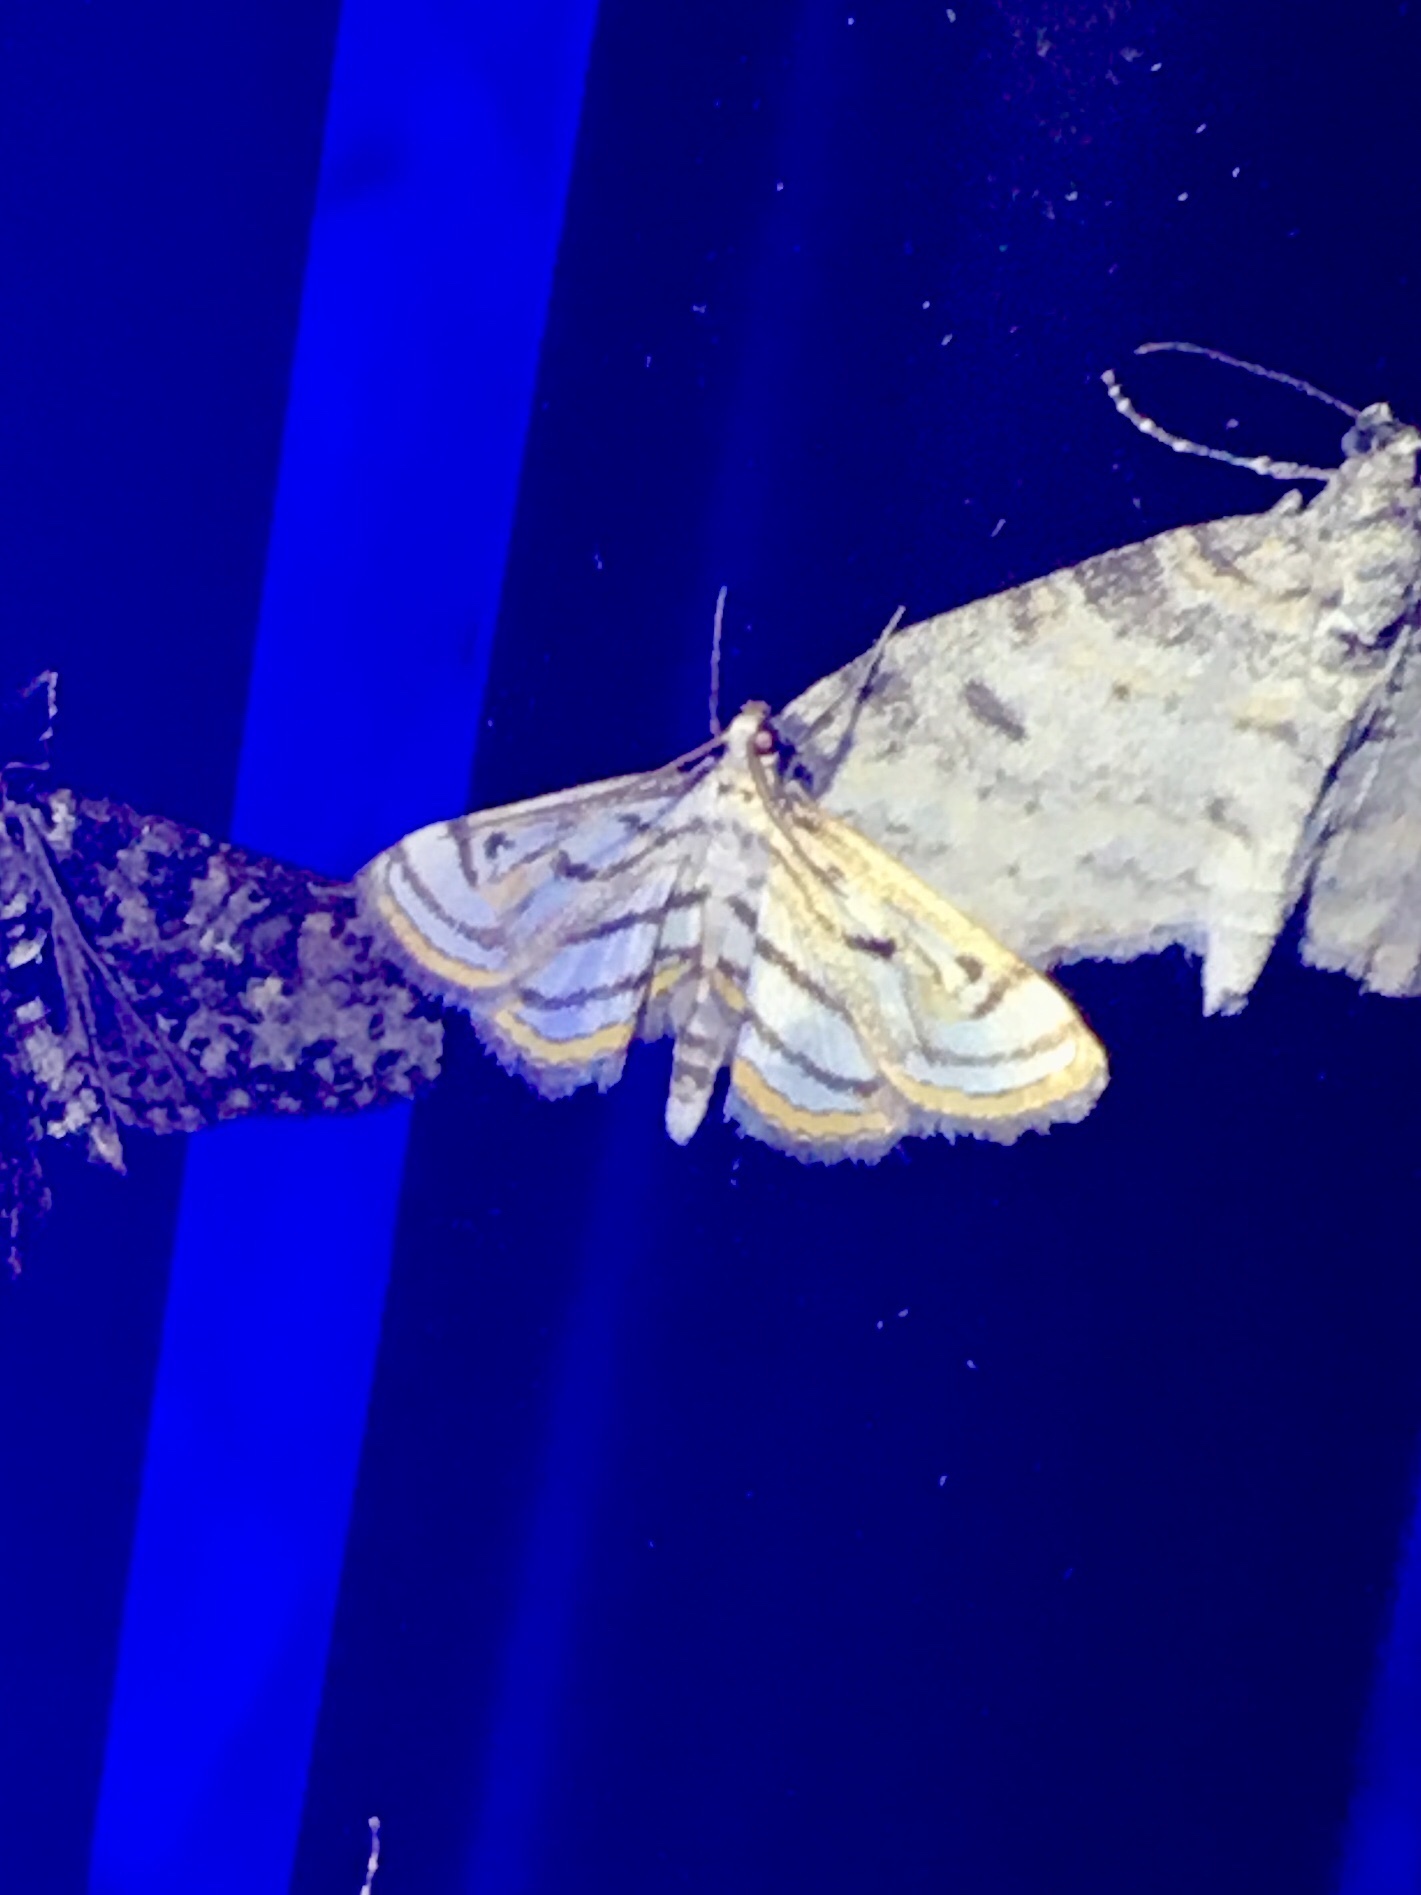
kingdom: Animalia
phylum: Arthropoda
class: Insecta
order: Lepidoptera
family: Crambidae
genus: Parapoynx
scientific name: Parapoynx badiusalis
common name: Chestnut-marked pondweed moth
